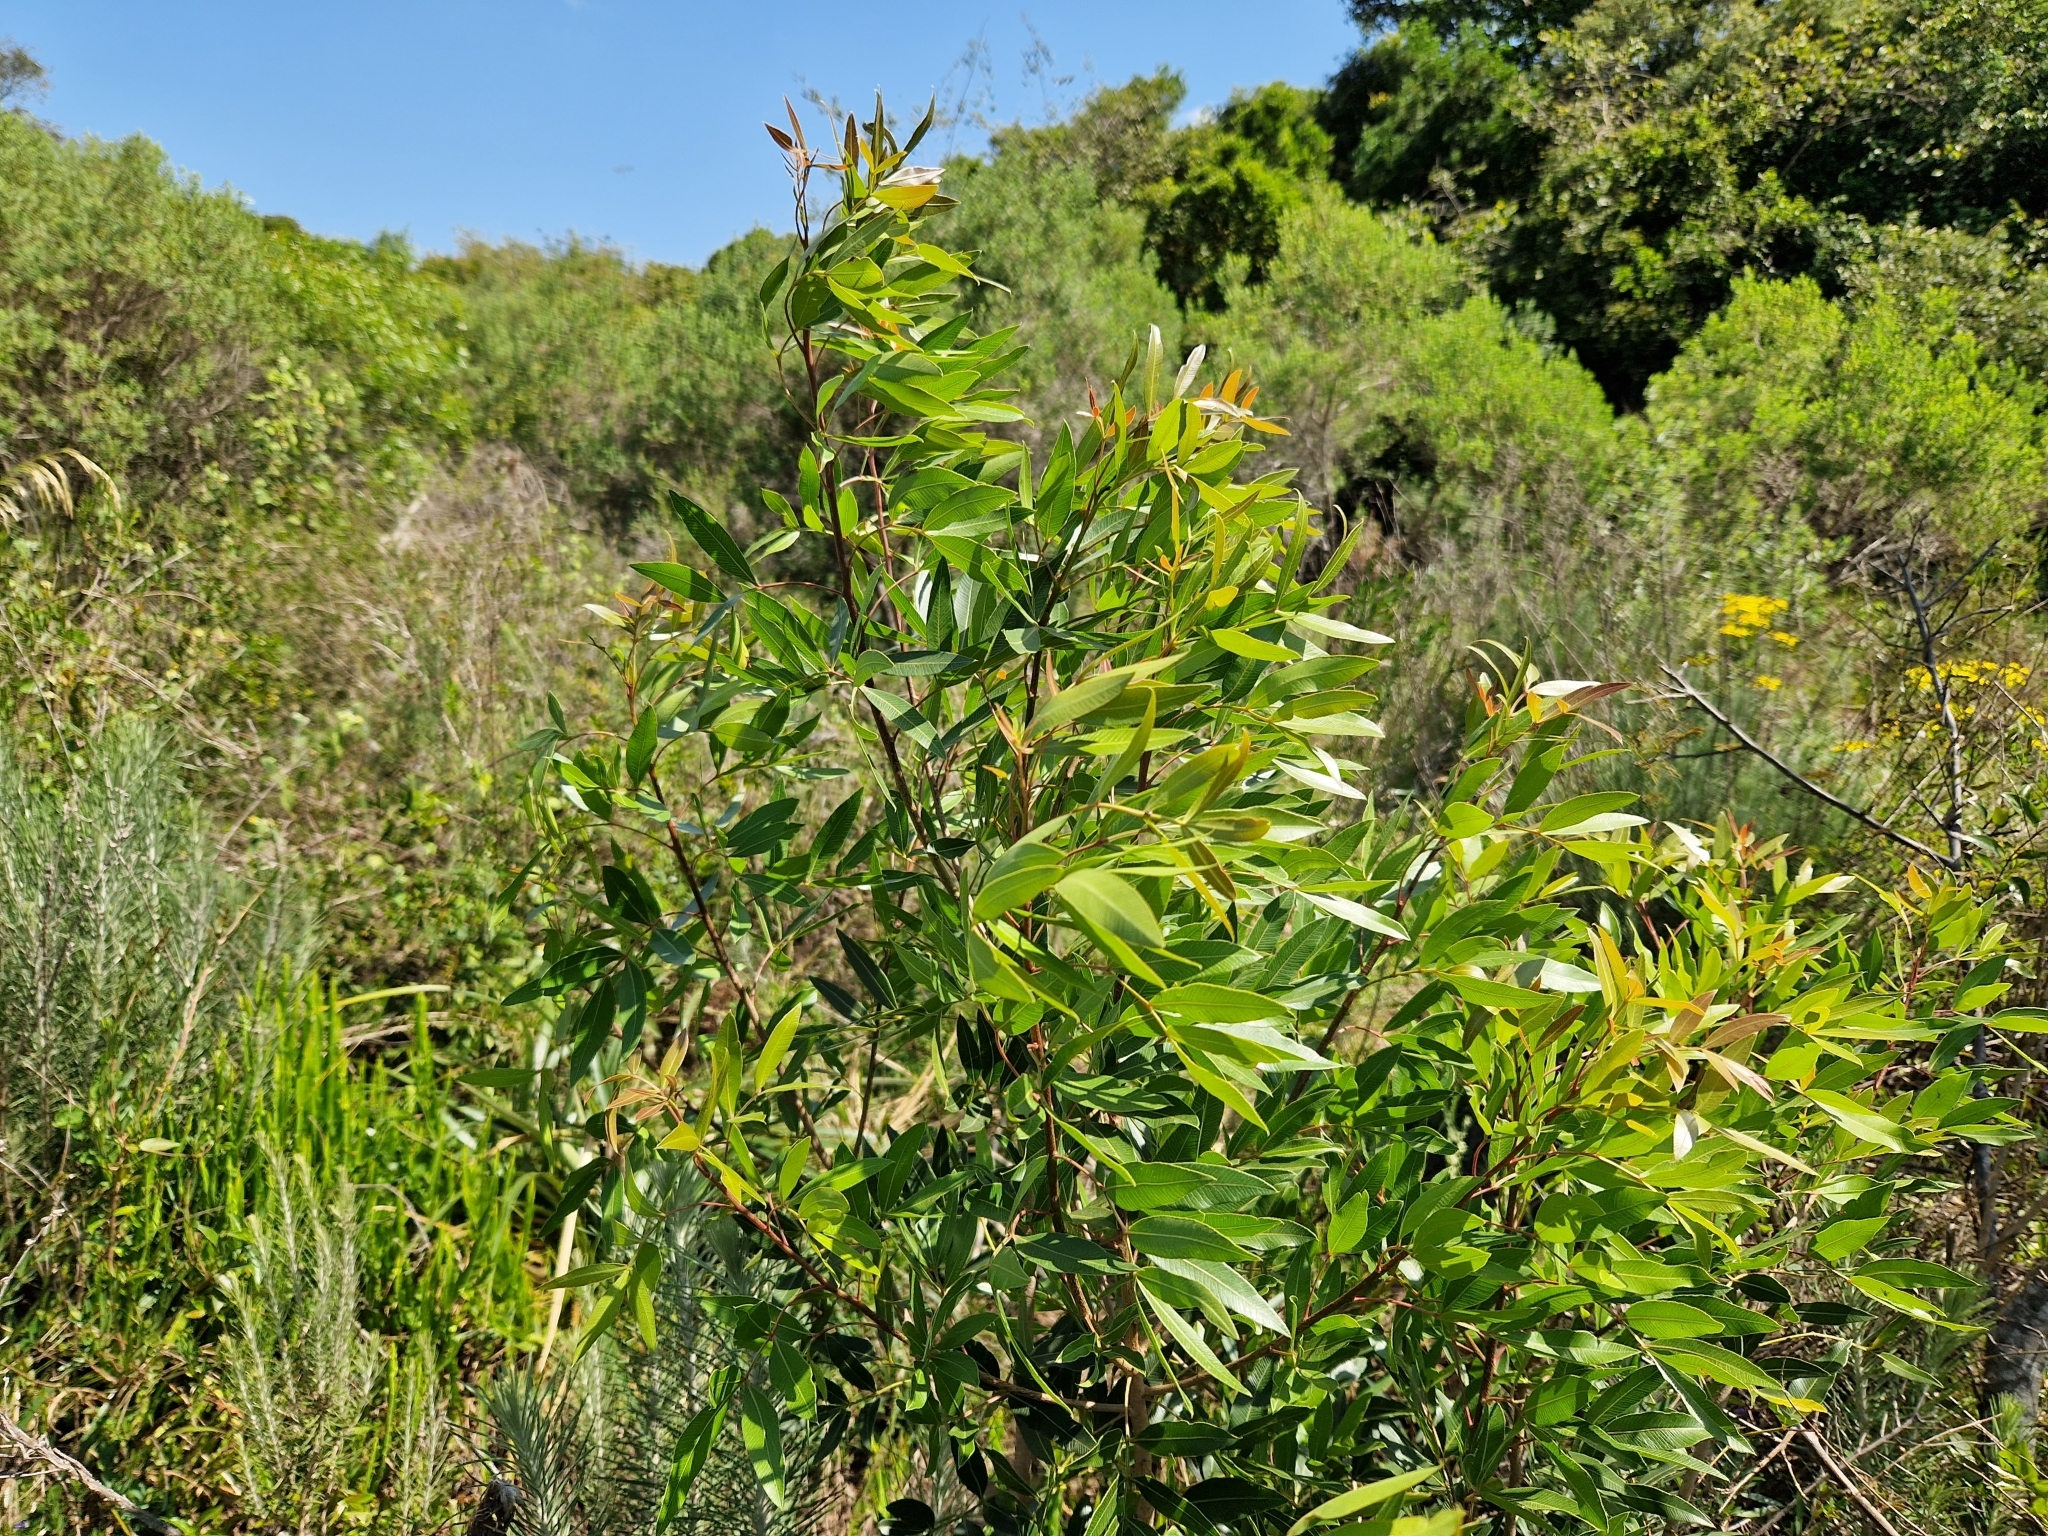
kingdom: Plantae
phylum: Tracheophyta
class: Magnoliopsida
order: Sapindales
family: Anacardiaceae
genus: Lithraea
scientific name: Lithraea molleoides
